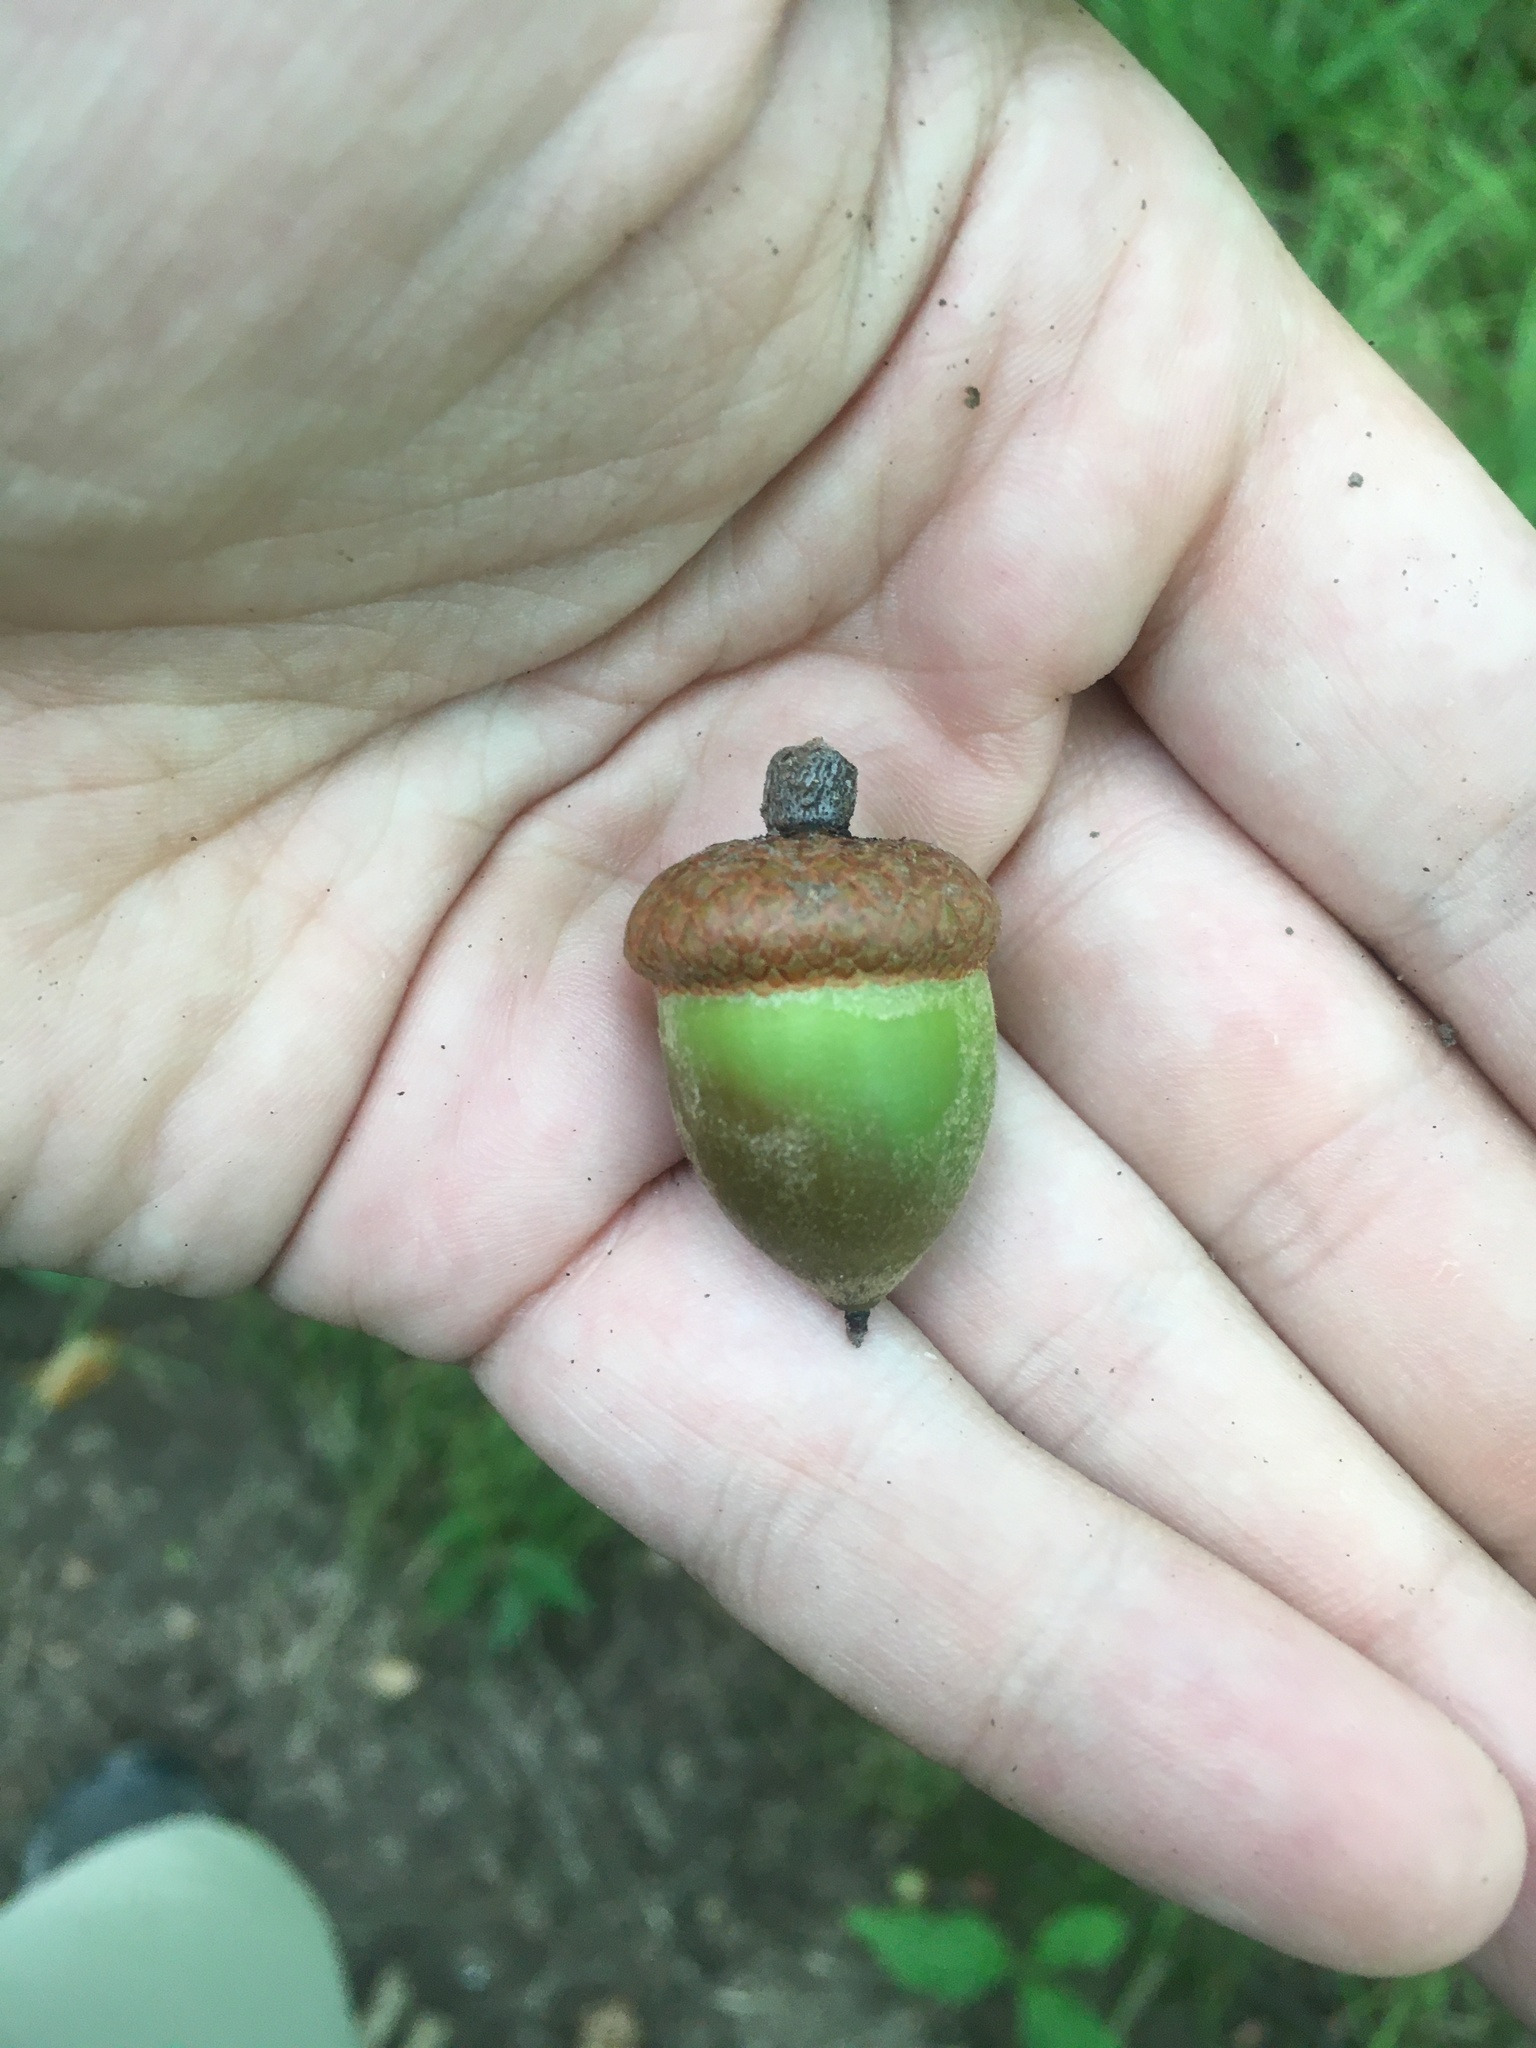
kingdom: Plantae
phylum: Tracheophyta
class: Magnoliopsida
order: Fagales
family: Fagaceae
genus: Quercus
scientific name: Quercus rubra
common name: Red oak
